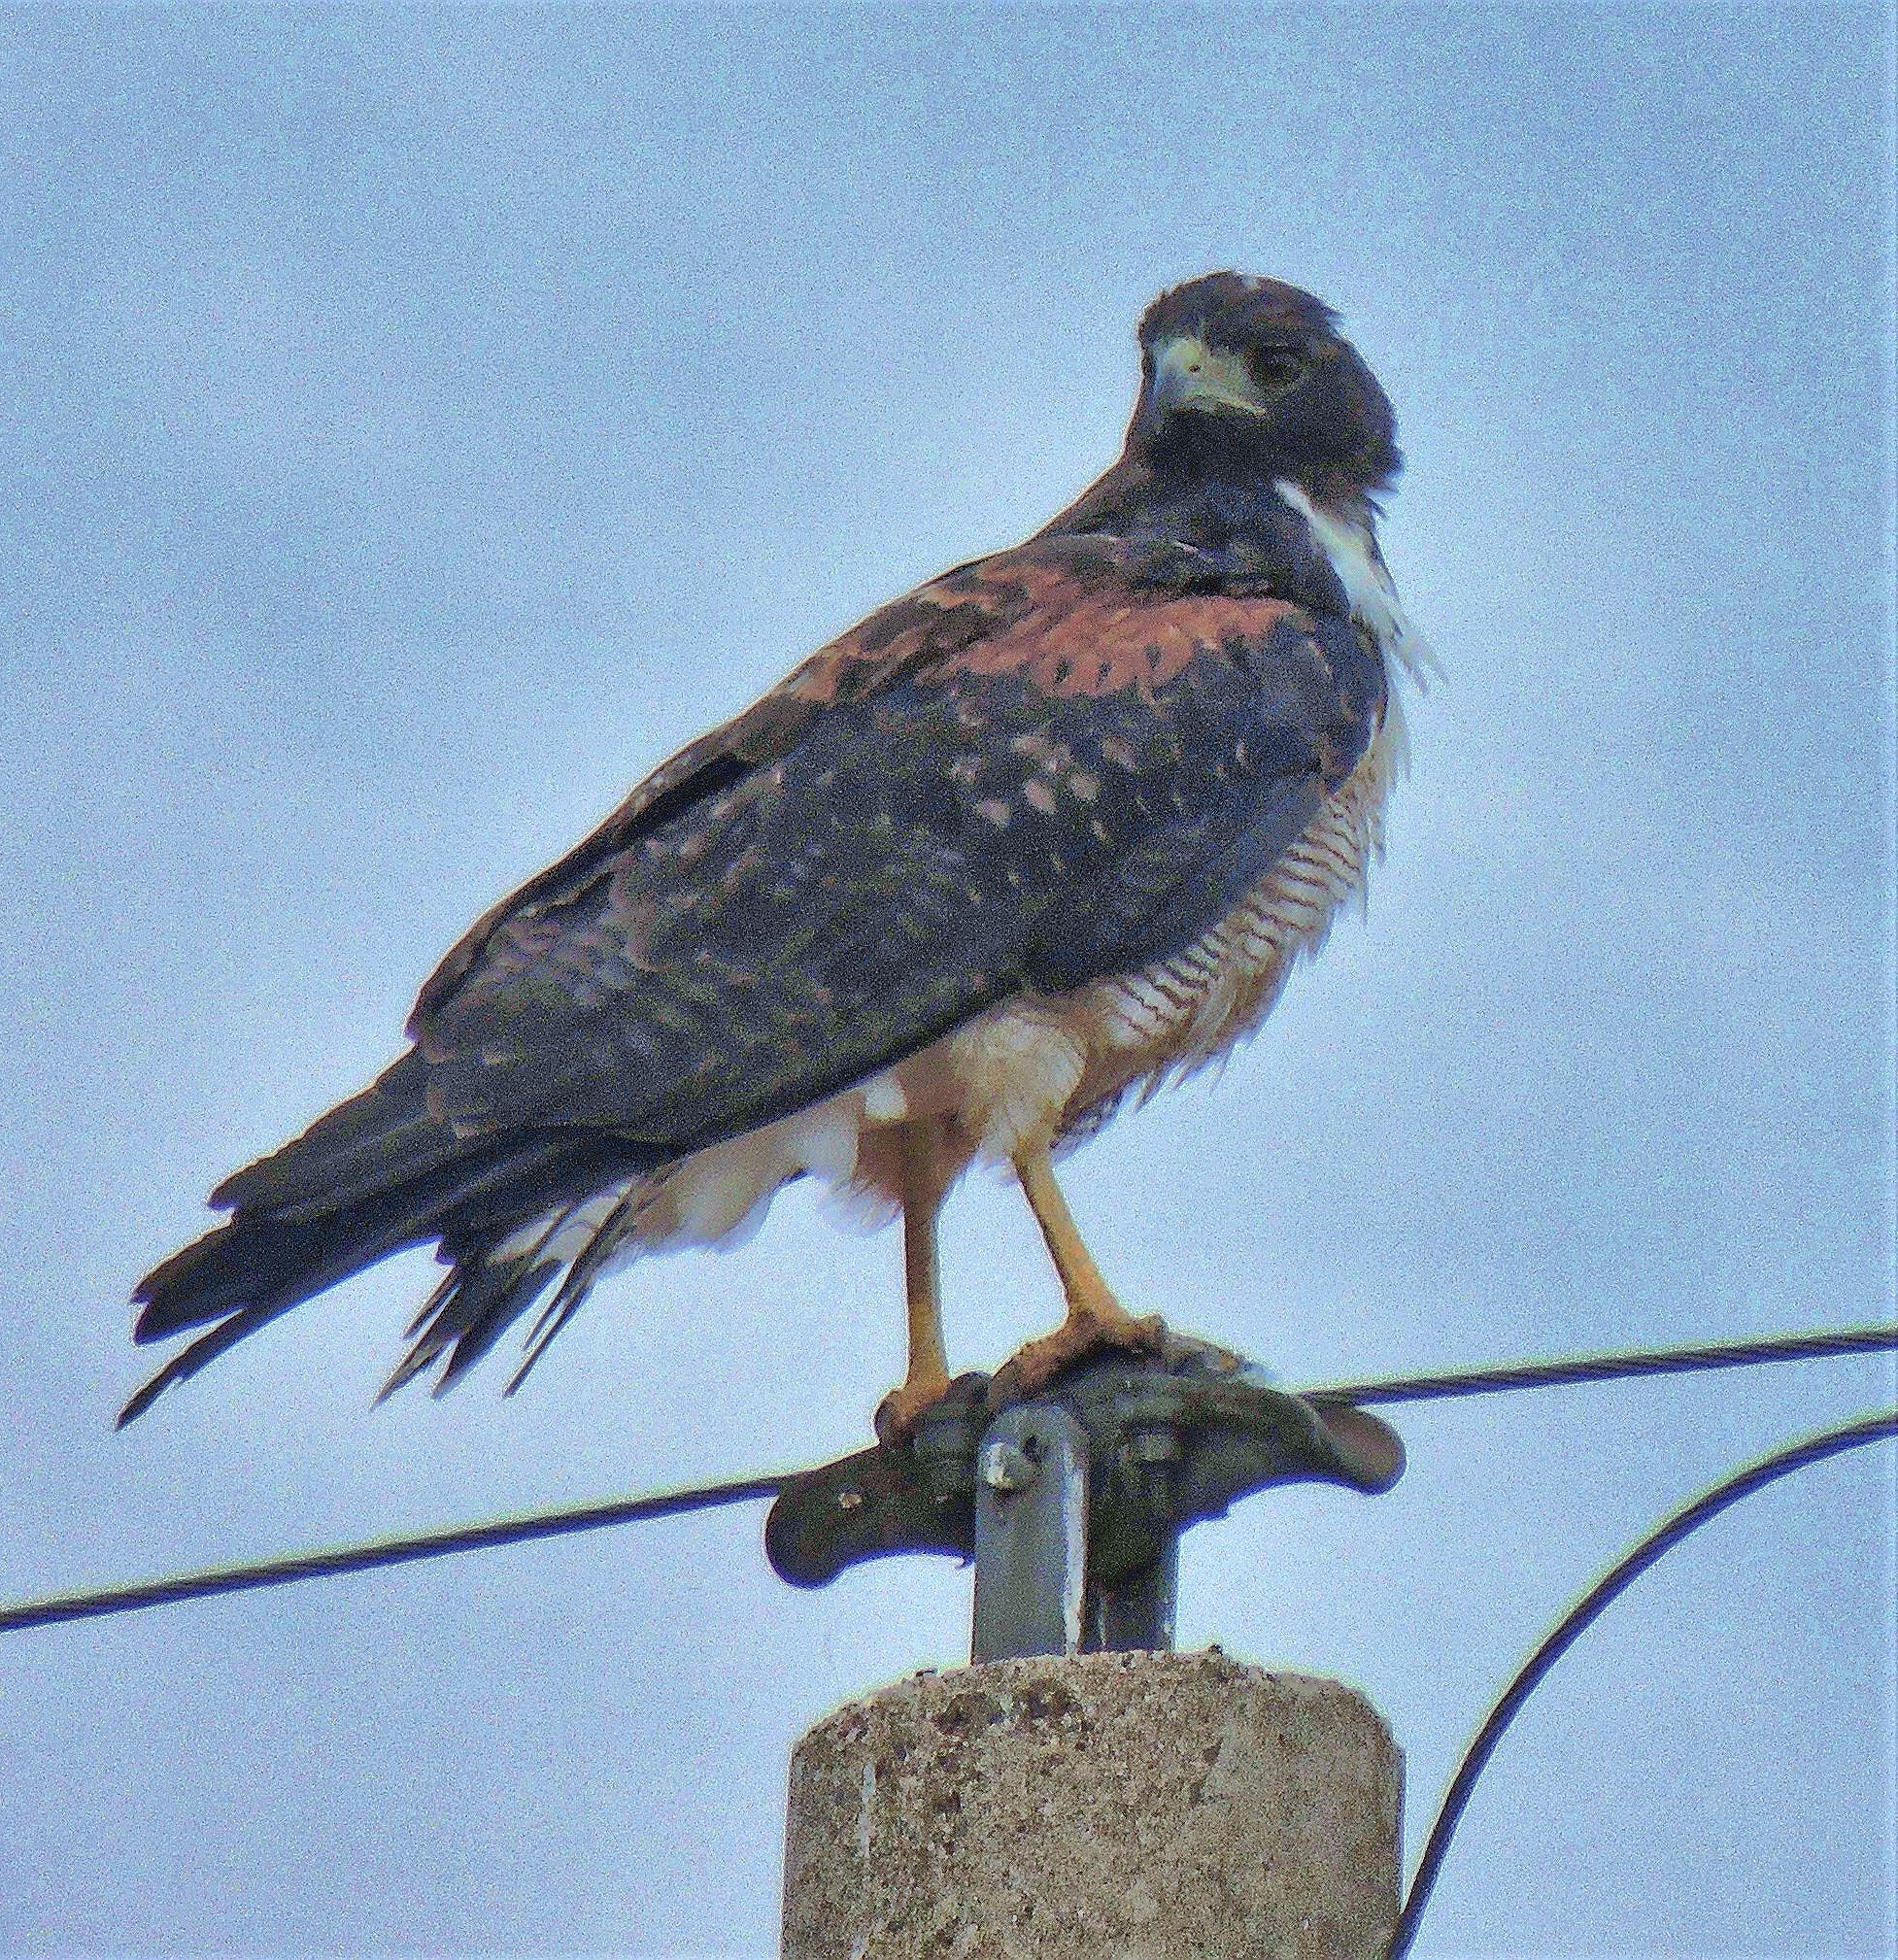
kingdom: Animalia
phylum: Chordata
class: Aves
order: Accipitriformes
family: Accipitridae
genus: Buteo
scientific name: Buteo albicaudatus
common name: White-tailed hawk
